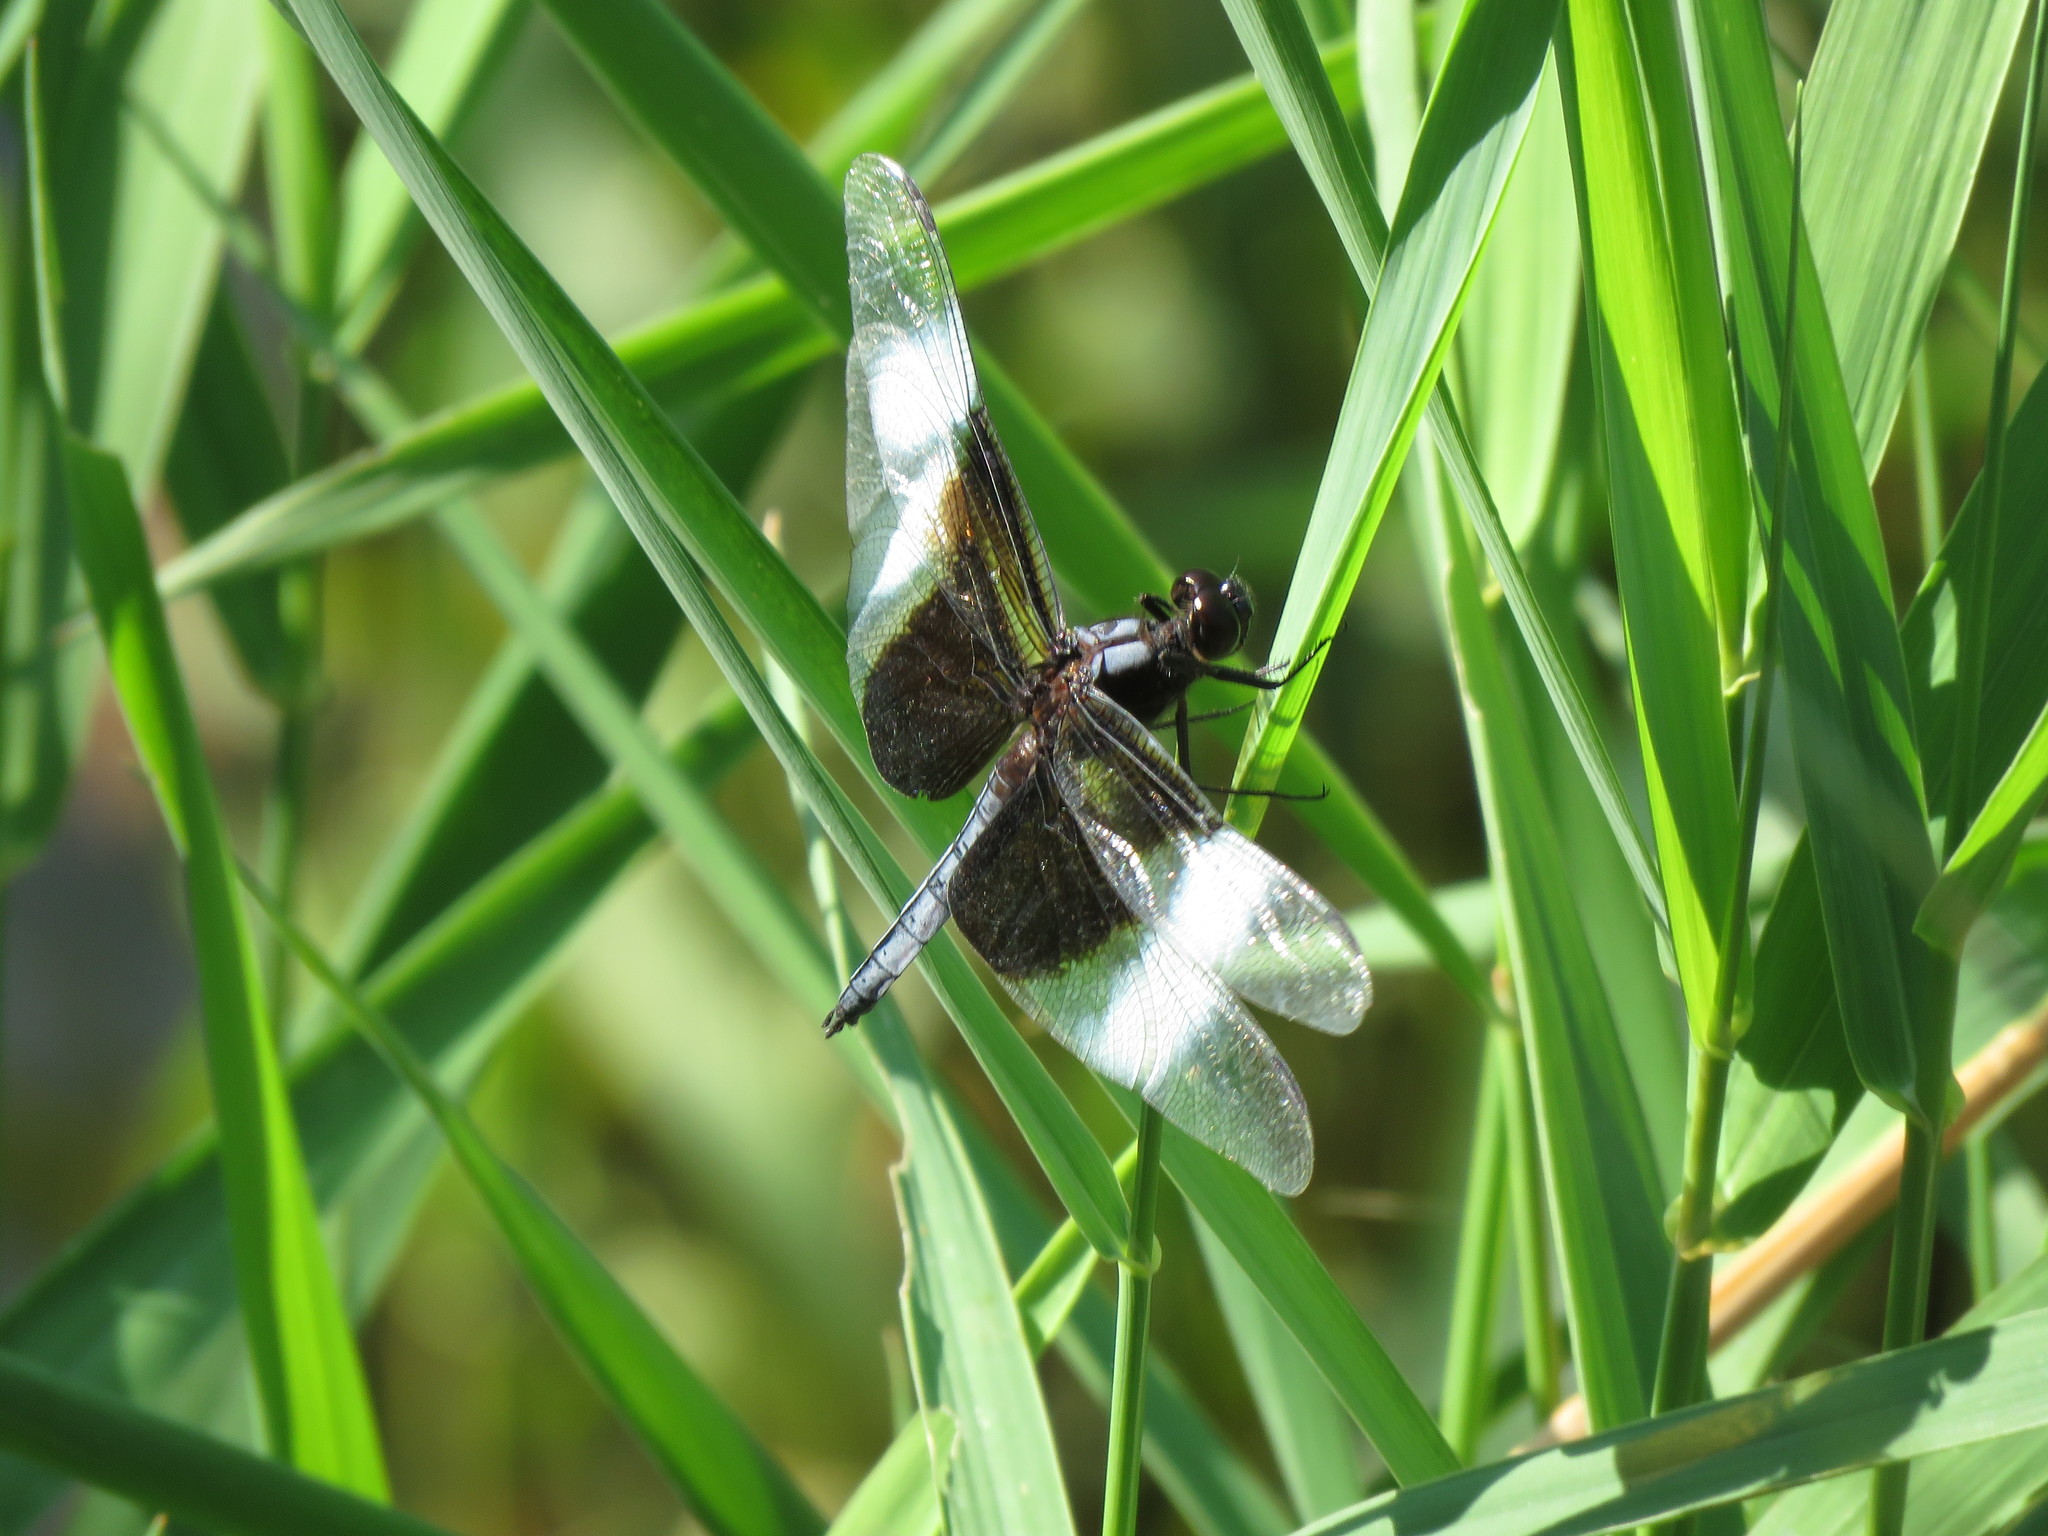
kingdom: Animalia
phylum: Arthropoda
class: Insecta
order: Odonata
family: Libellulidae
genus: Libellula
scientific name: Libellula luctuosa
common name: Widow skimmer
